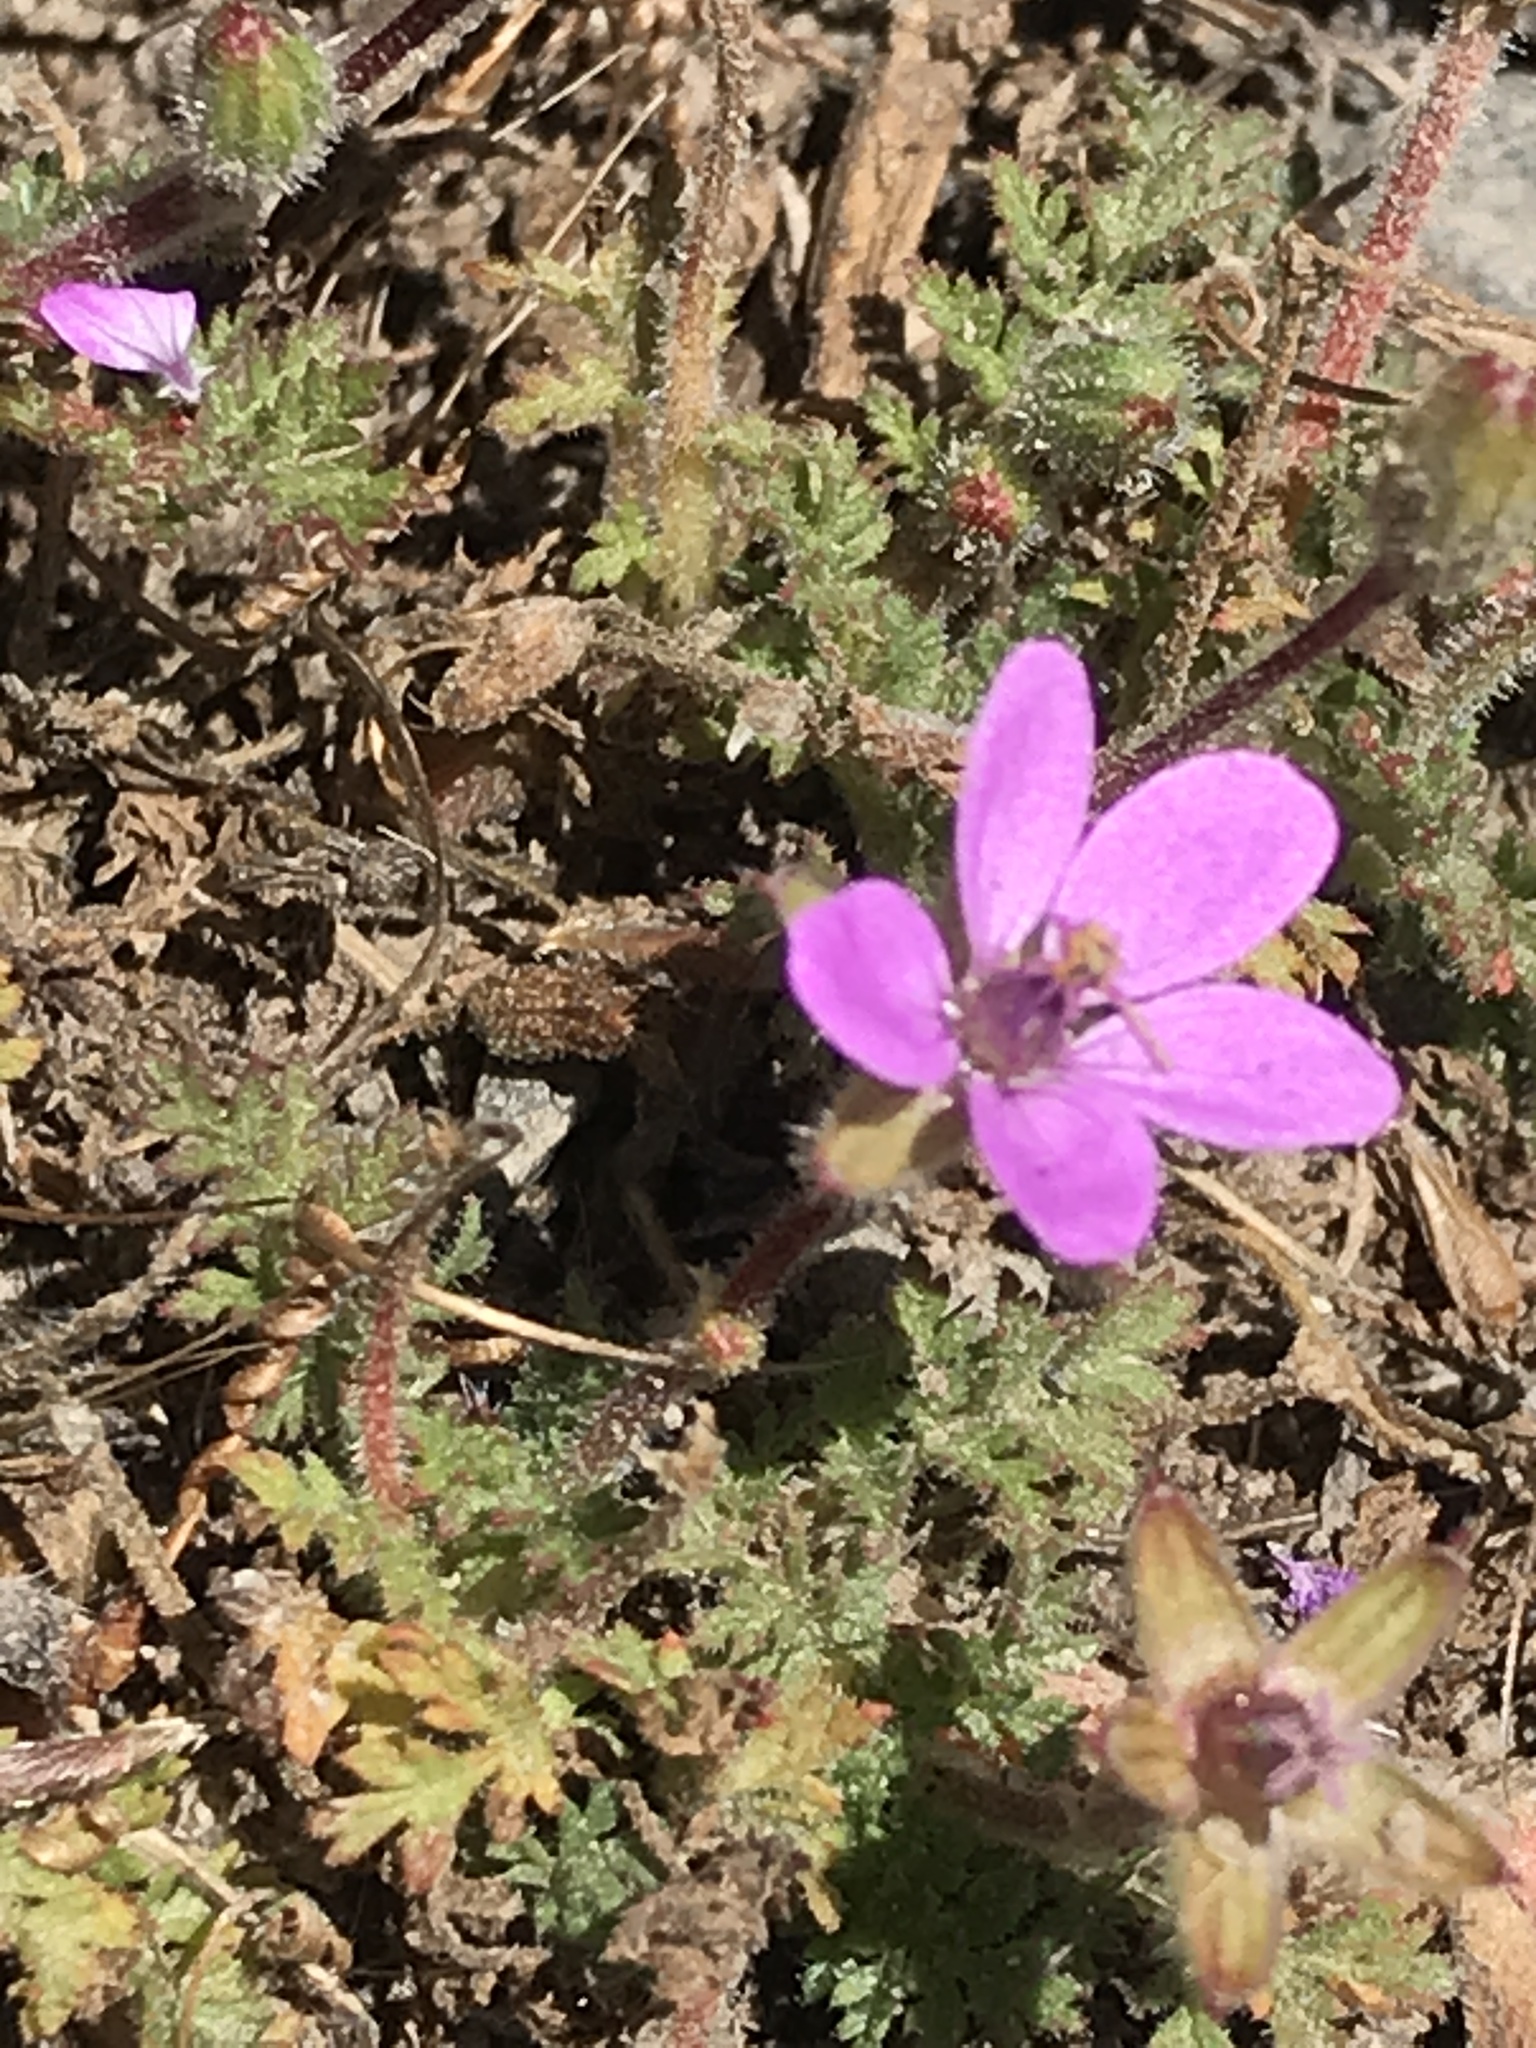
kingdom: Plantae
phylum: Tracheophyta
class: Magnoliopsida
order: Geraniales
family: Geraniaceae
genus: Erodium
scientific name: Erodium cicutarium
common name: Common stork's-bill
